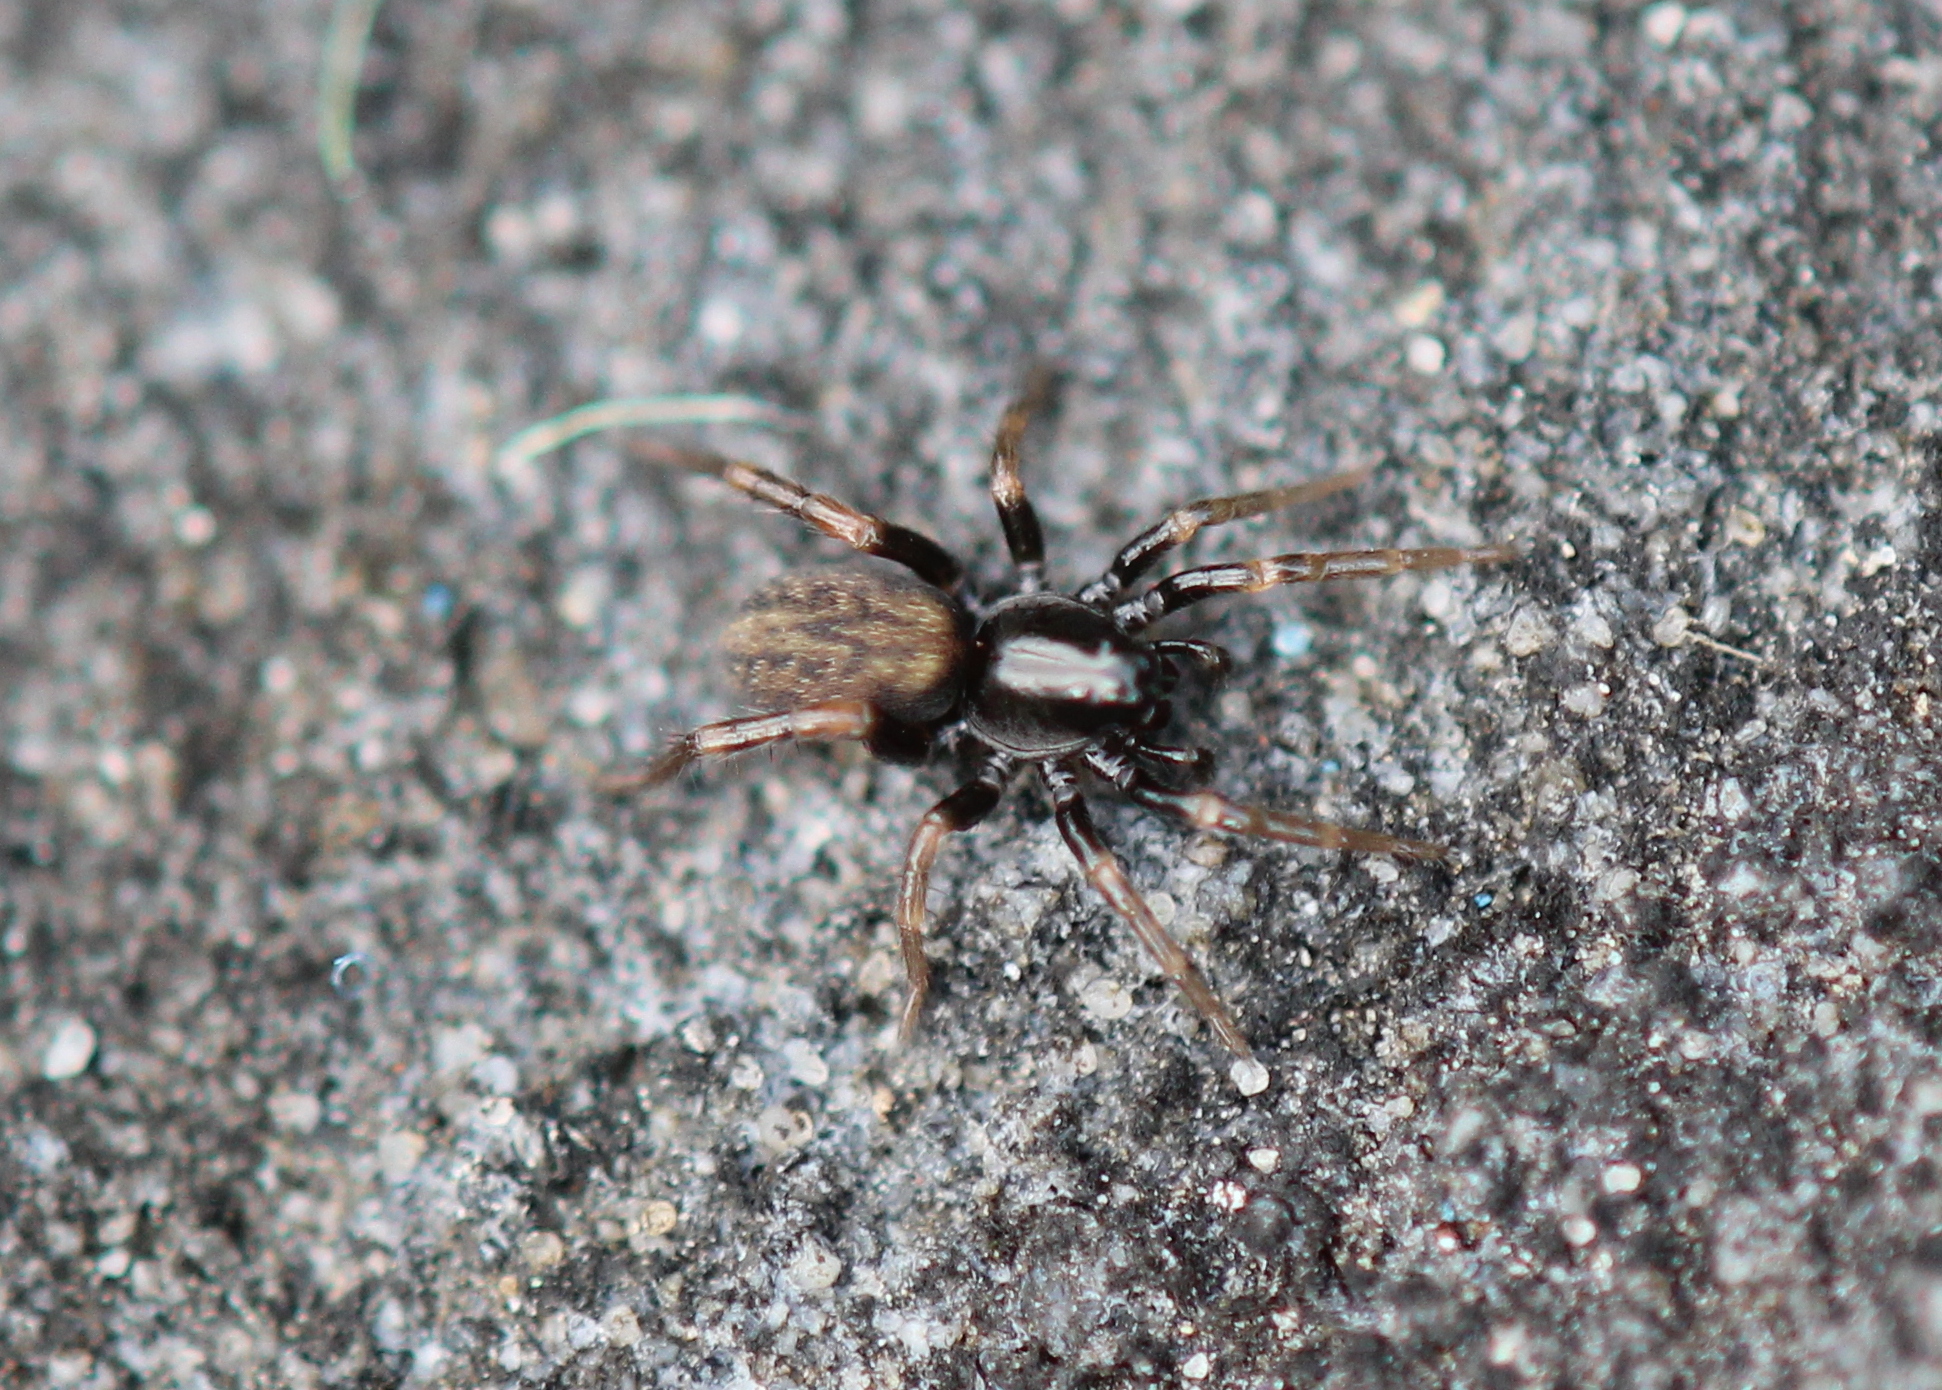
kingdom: Animalia
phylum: Arthropoda
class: Arachnida
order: Araneae
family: Lycosidae
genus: Allocosa
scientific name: Allocosa funerea
